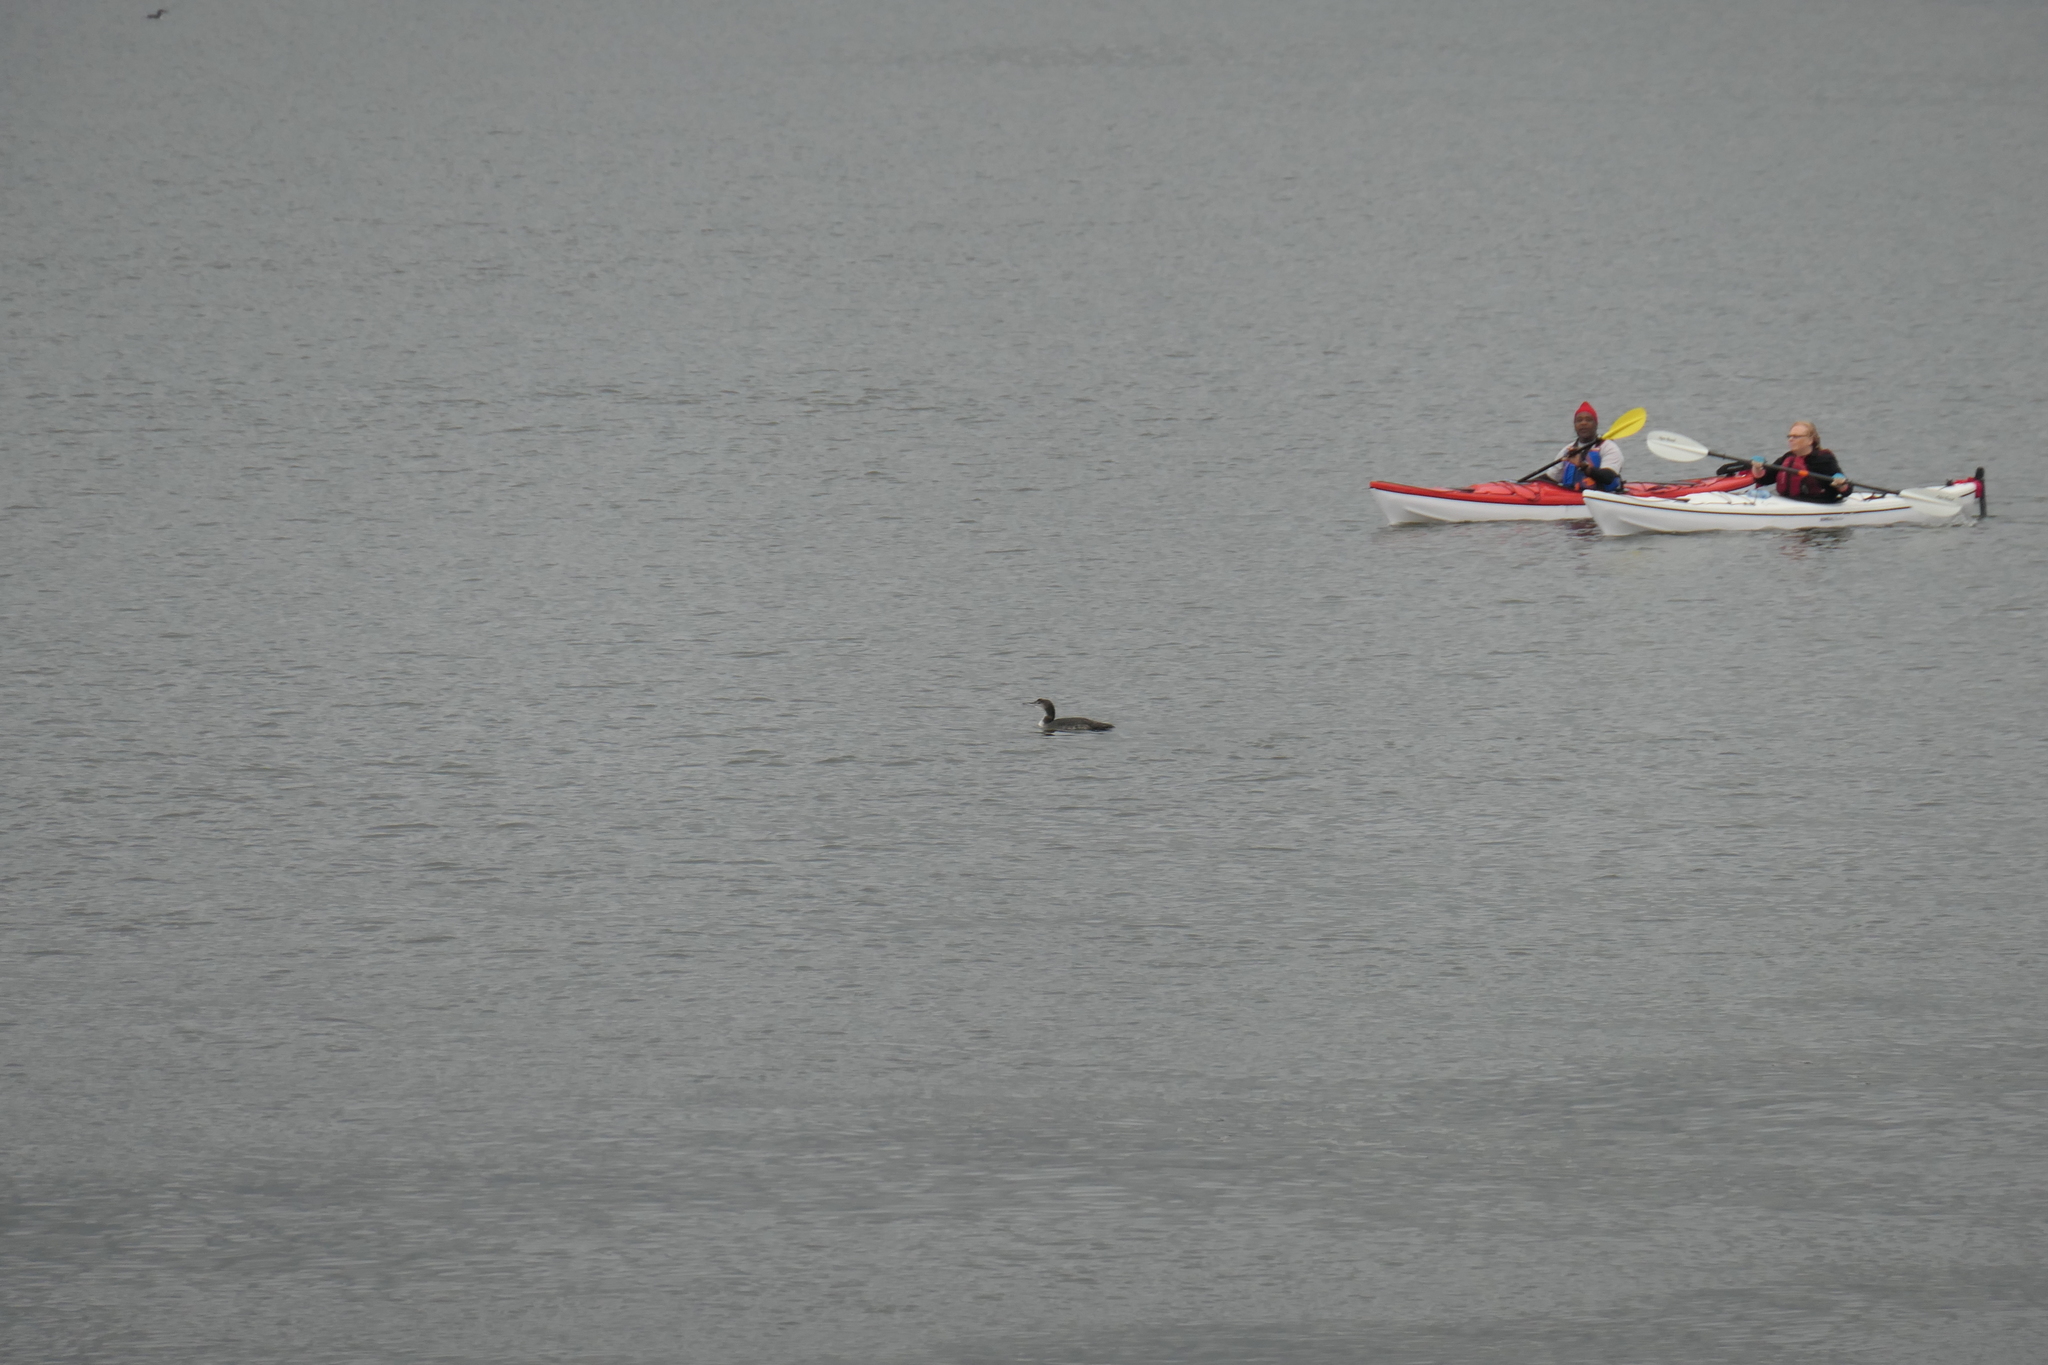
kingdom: Animalia
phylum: Chordata
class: Aves
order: Gaviiformes
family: Gaviidae
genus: Gavia
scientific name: Gavia immer
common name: Common loon
